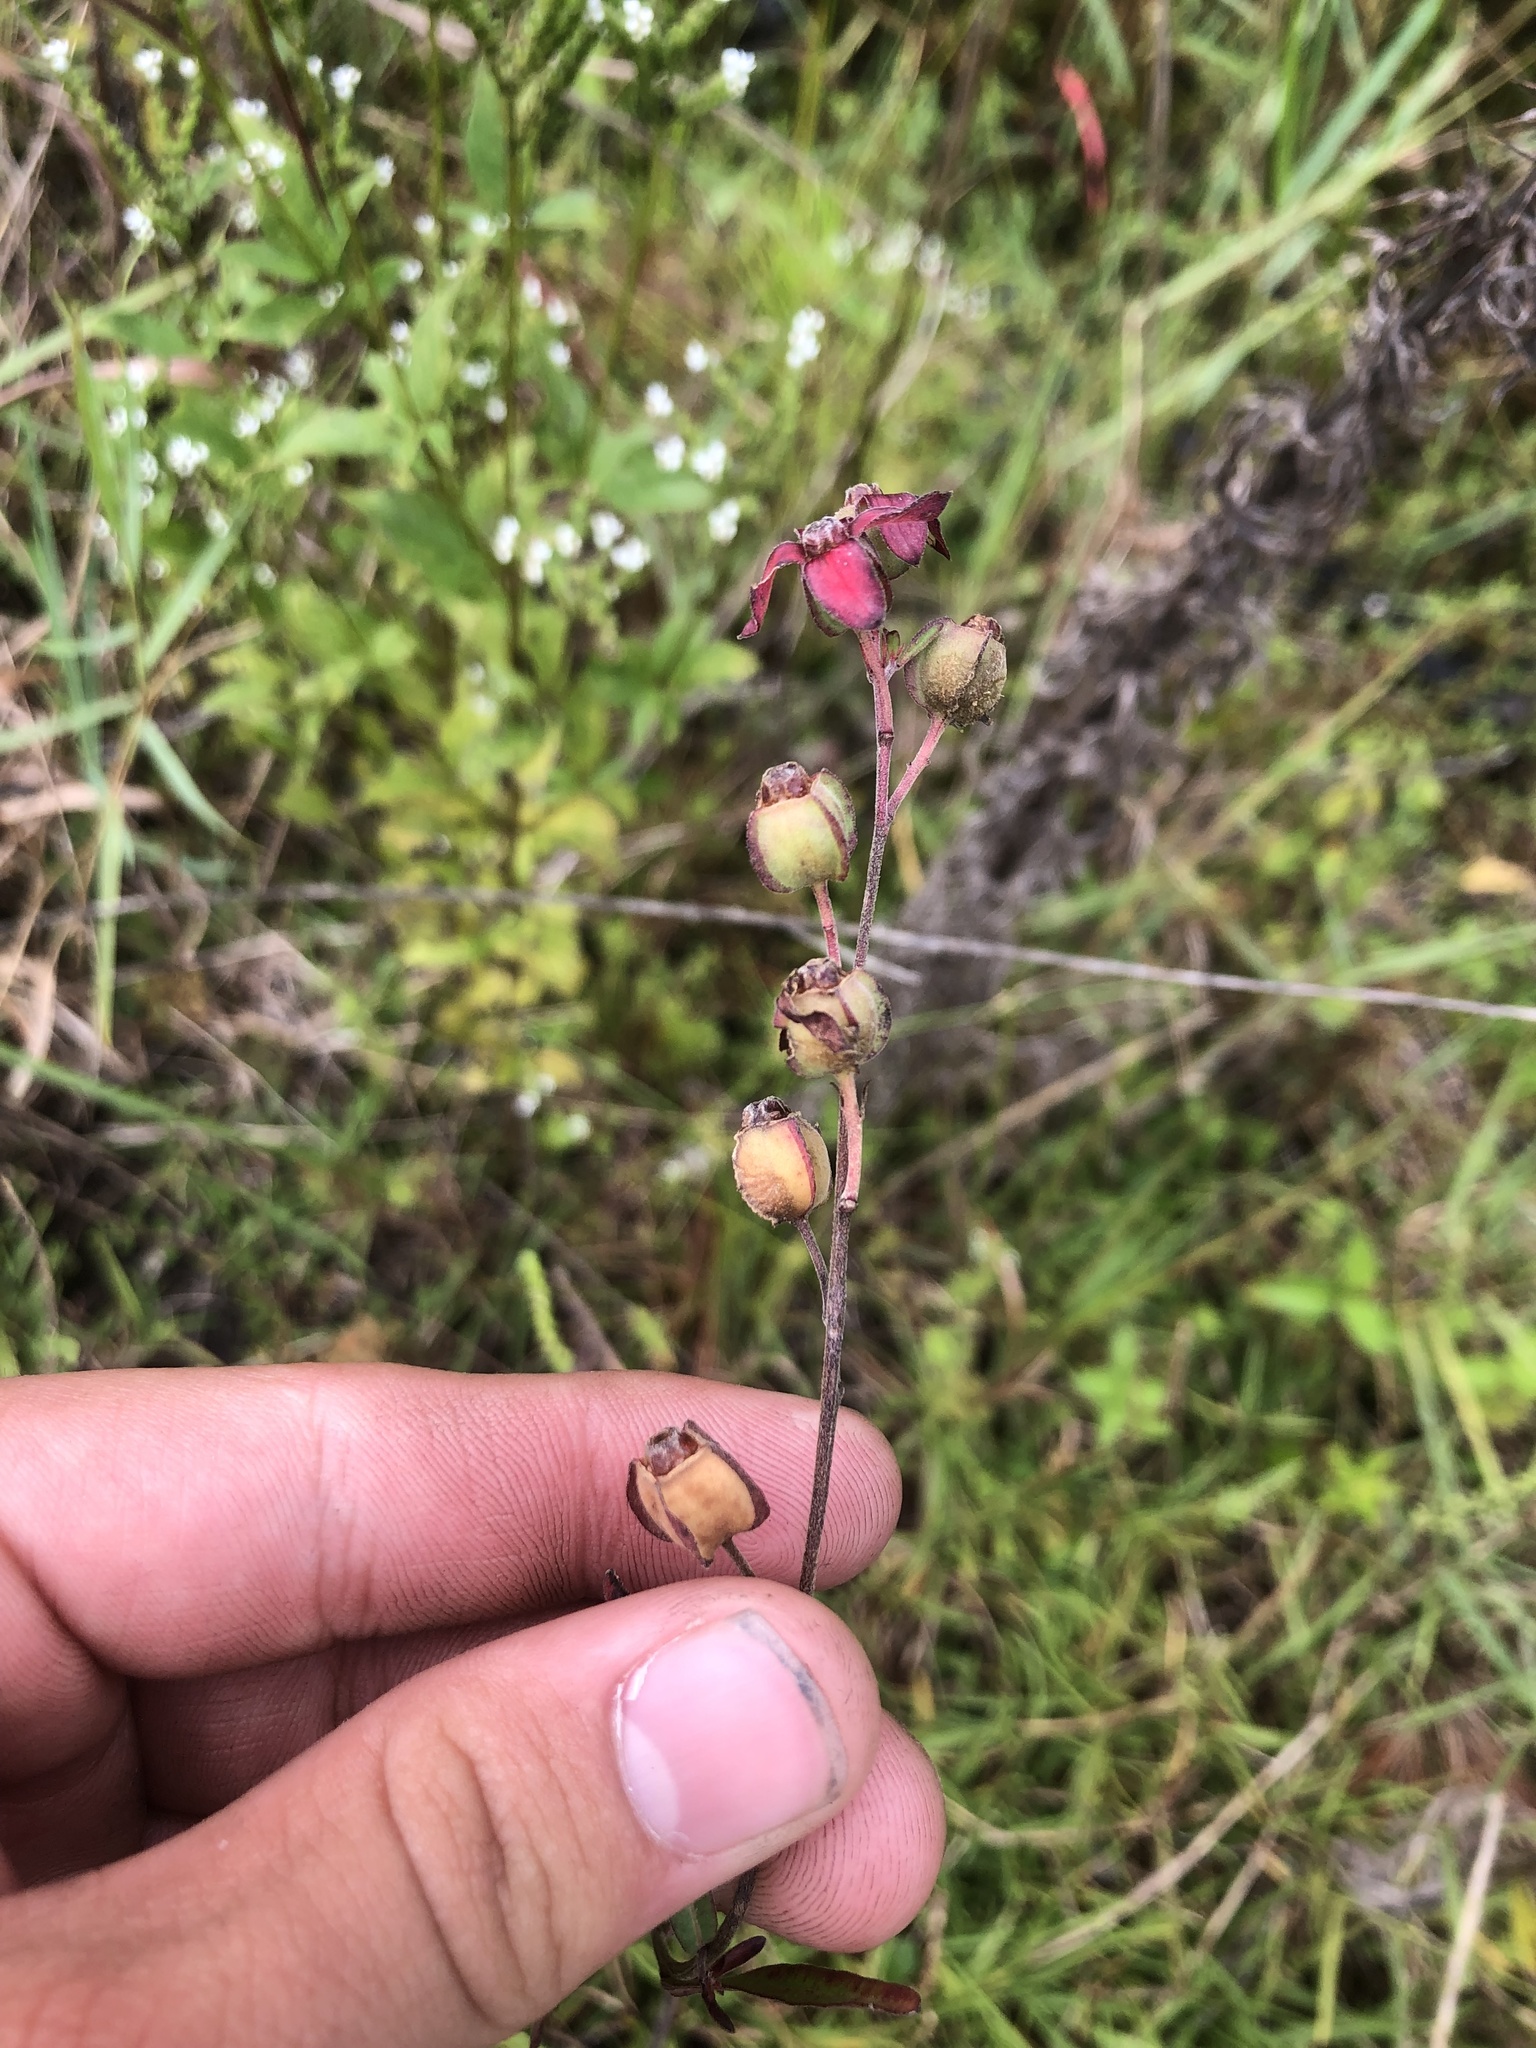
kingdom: Plantae
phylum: Tracheophyta
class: Magnoliopsida
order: Myrtales
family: Onagraceae
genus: Ludwigia
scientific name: Ludwigia maritima
